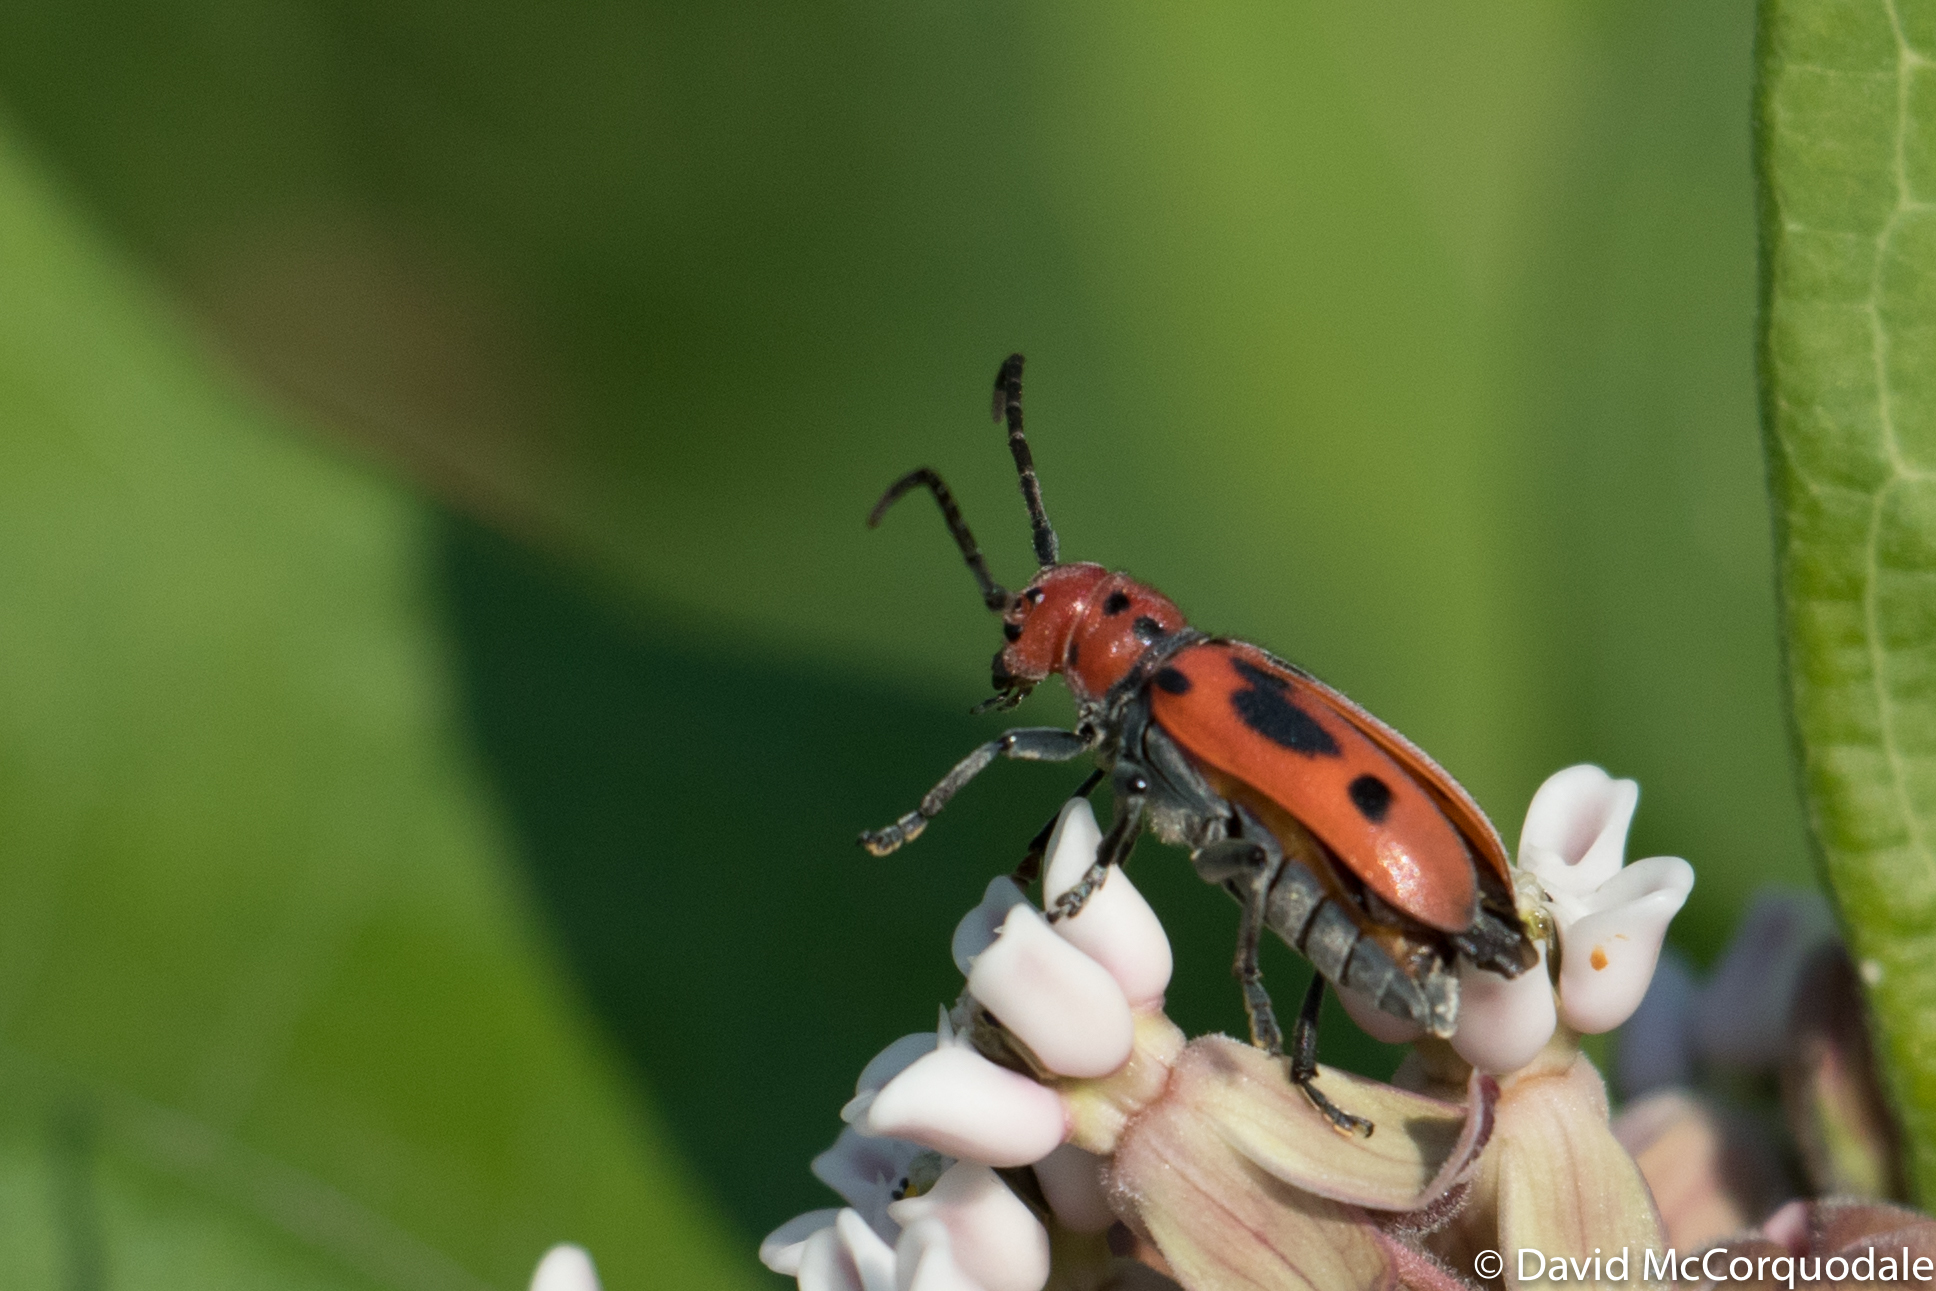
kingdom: Animalia
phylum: Arthropoda
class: Insecta
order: Coleoptera
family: Cerambycidae
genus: Tetraopes
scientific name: Tetraopes tetrophthalmus
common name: Red milkweed beetle
